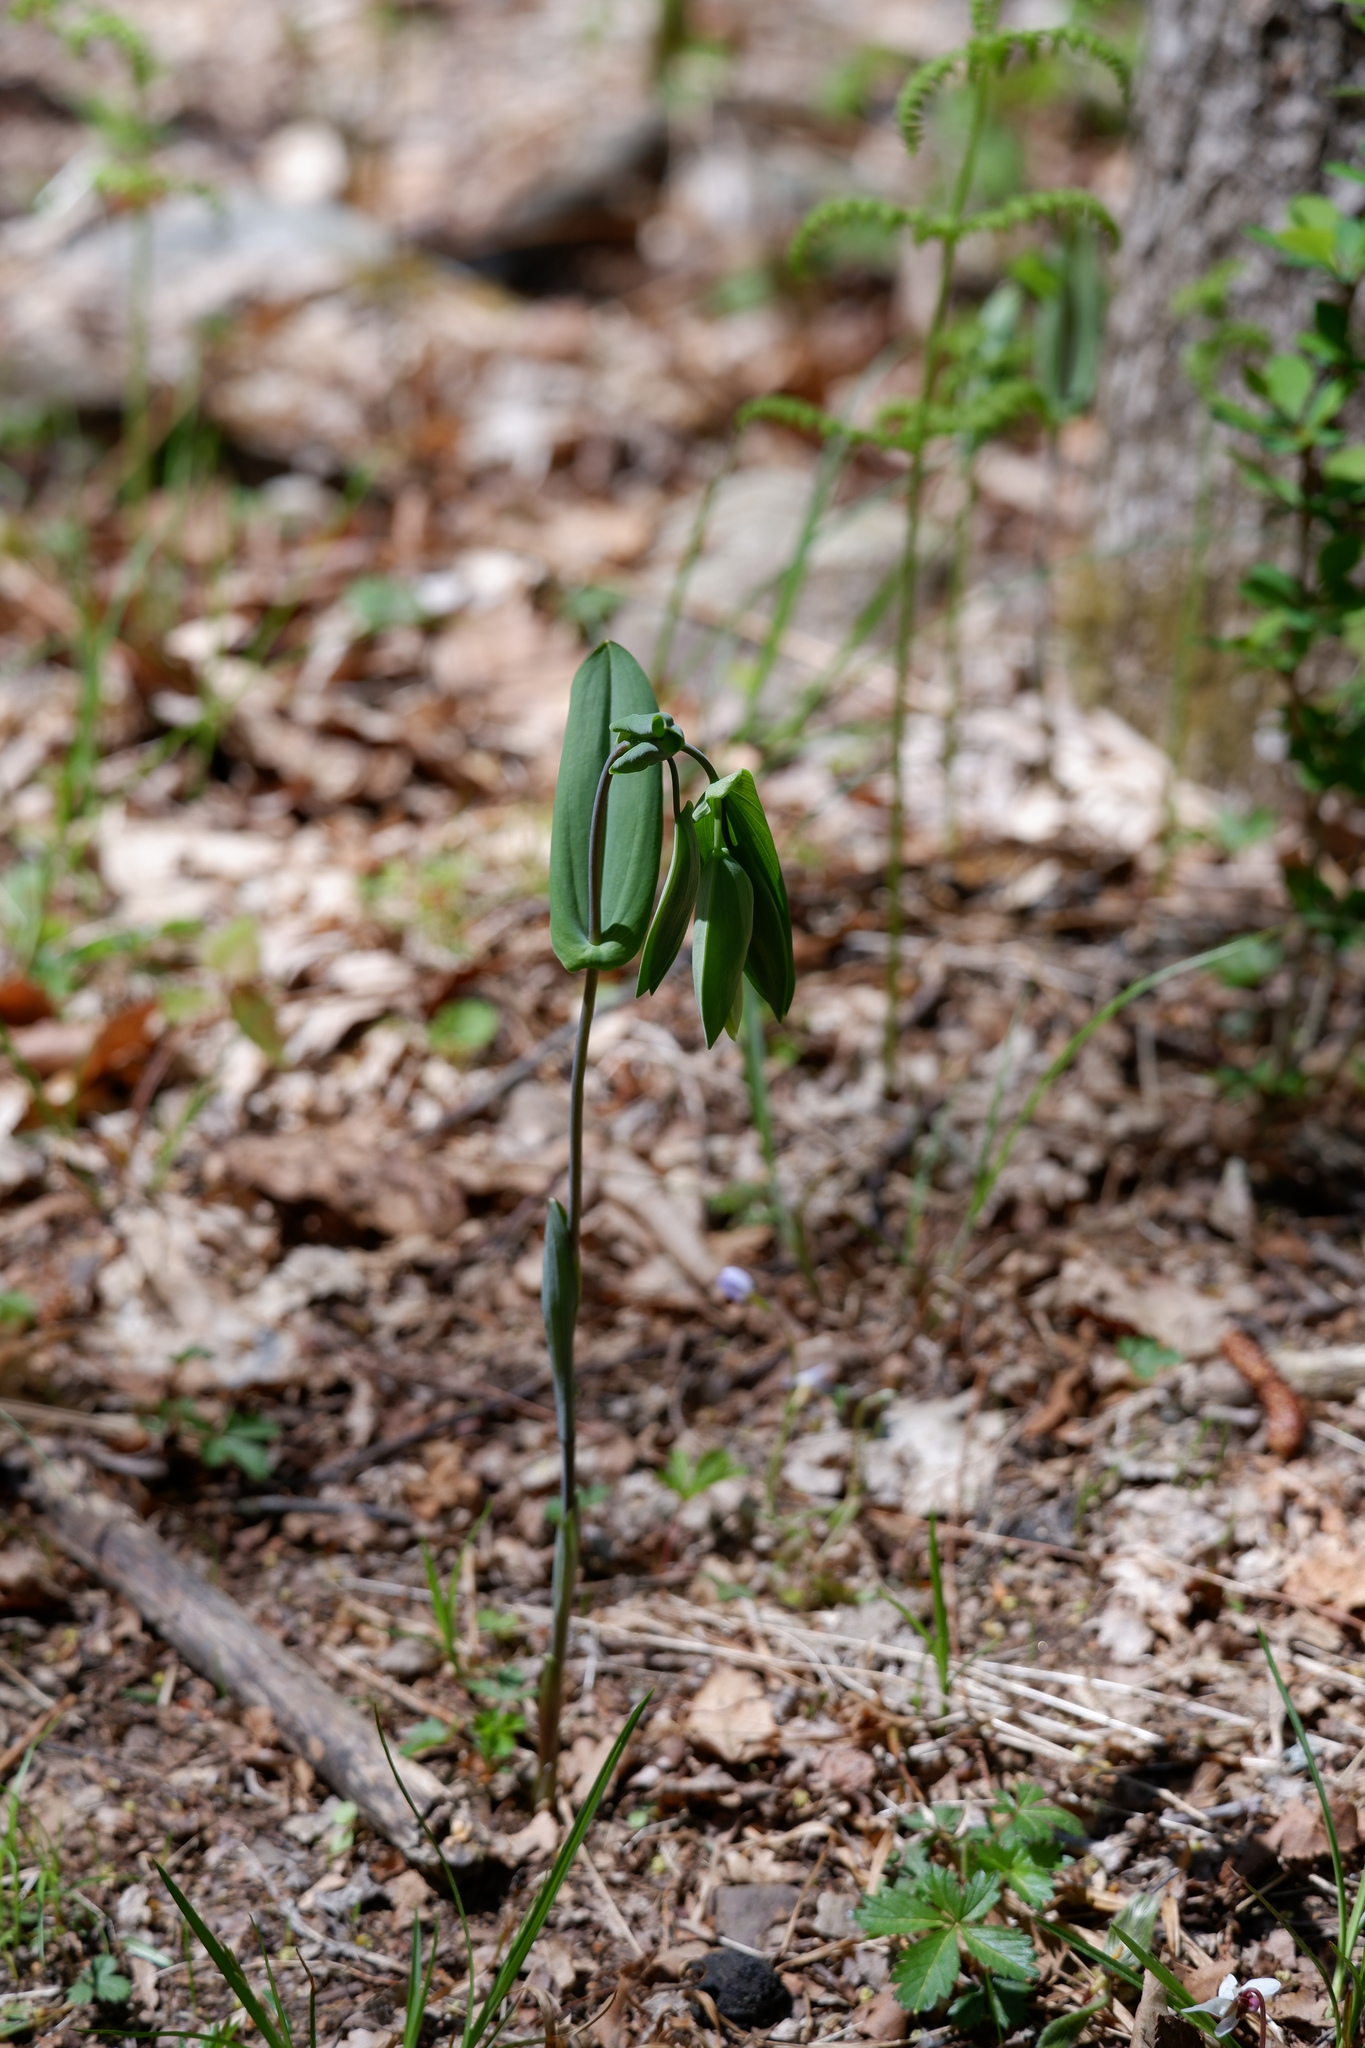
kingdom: Plantae
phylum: Tracheophyta
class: Liliopsida
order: Liliales
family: Colchicaceae
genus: Uvularia
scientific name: Uvularia perfoliata
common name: Perfoliate bellwort
